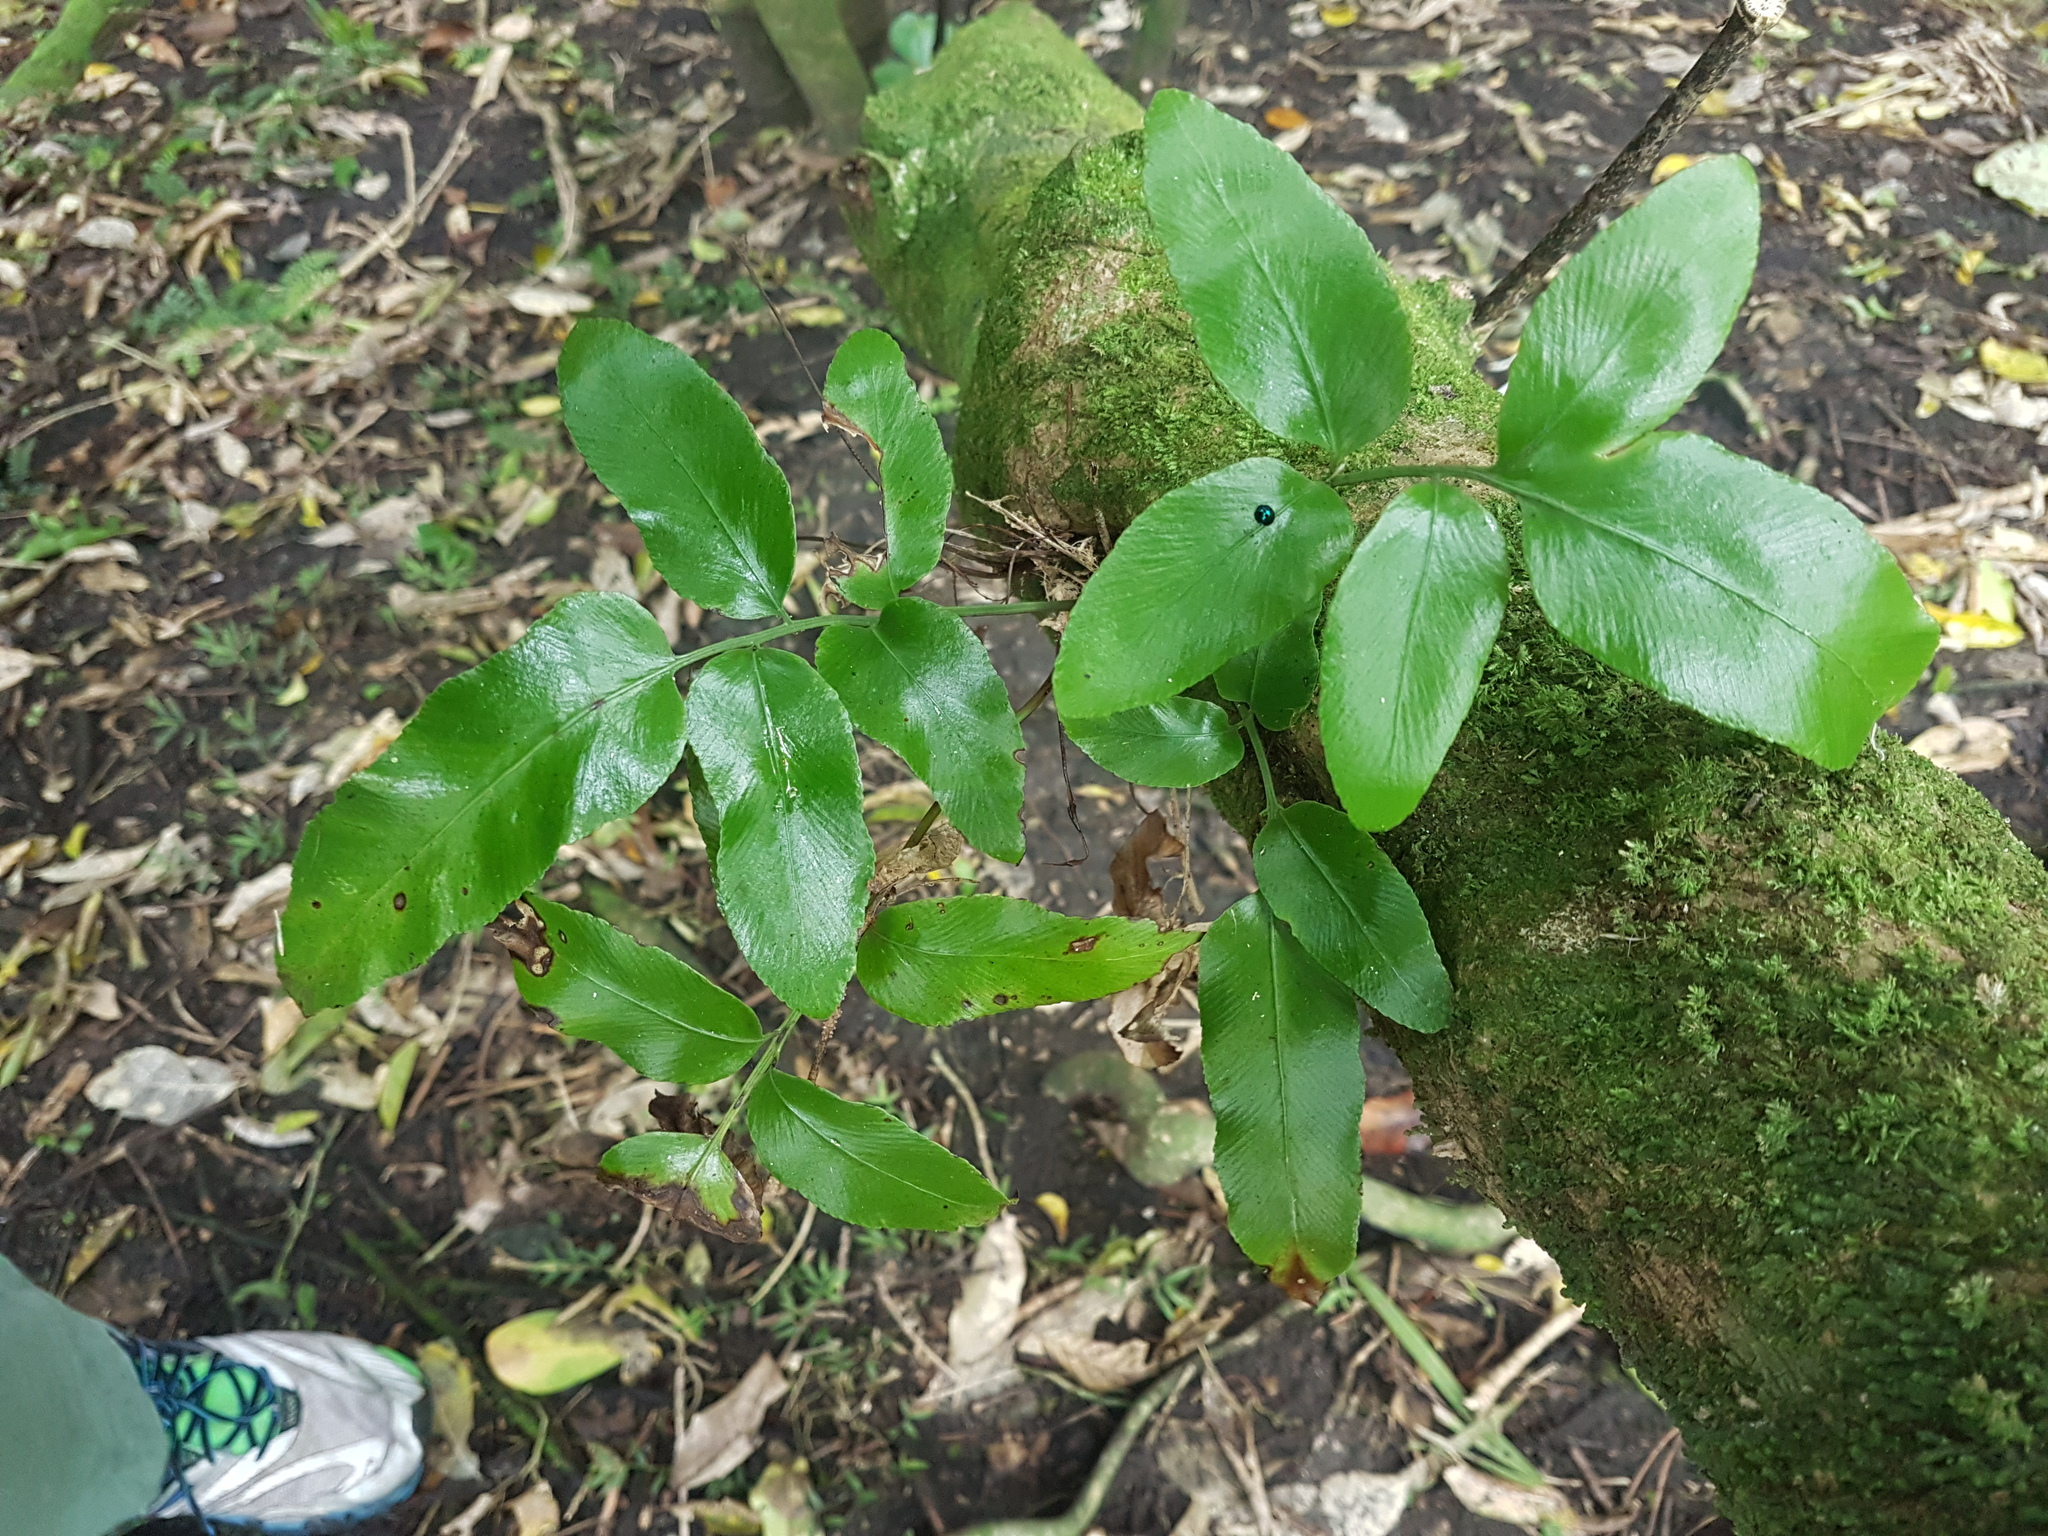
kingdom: Plantae
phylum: Tracheophyta
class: Polypodiopsida
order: Polypodiales
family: Aspleniaceae
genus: Asplenium
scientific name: Asplenium oblongifolium
